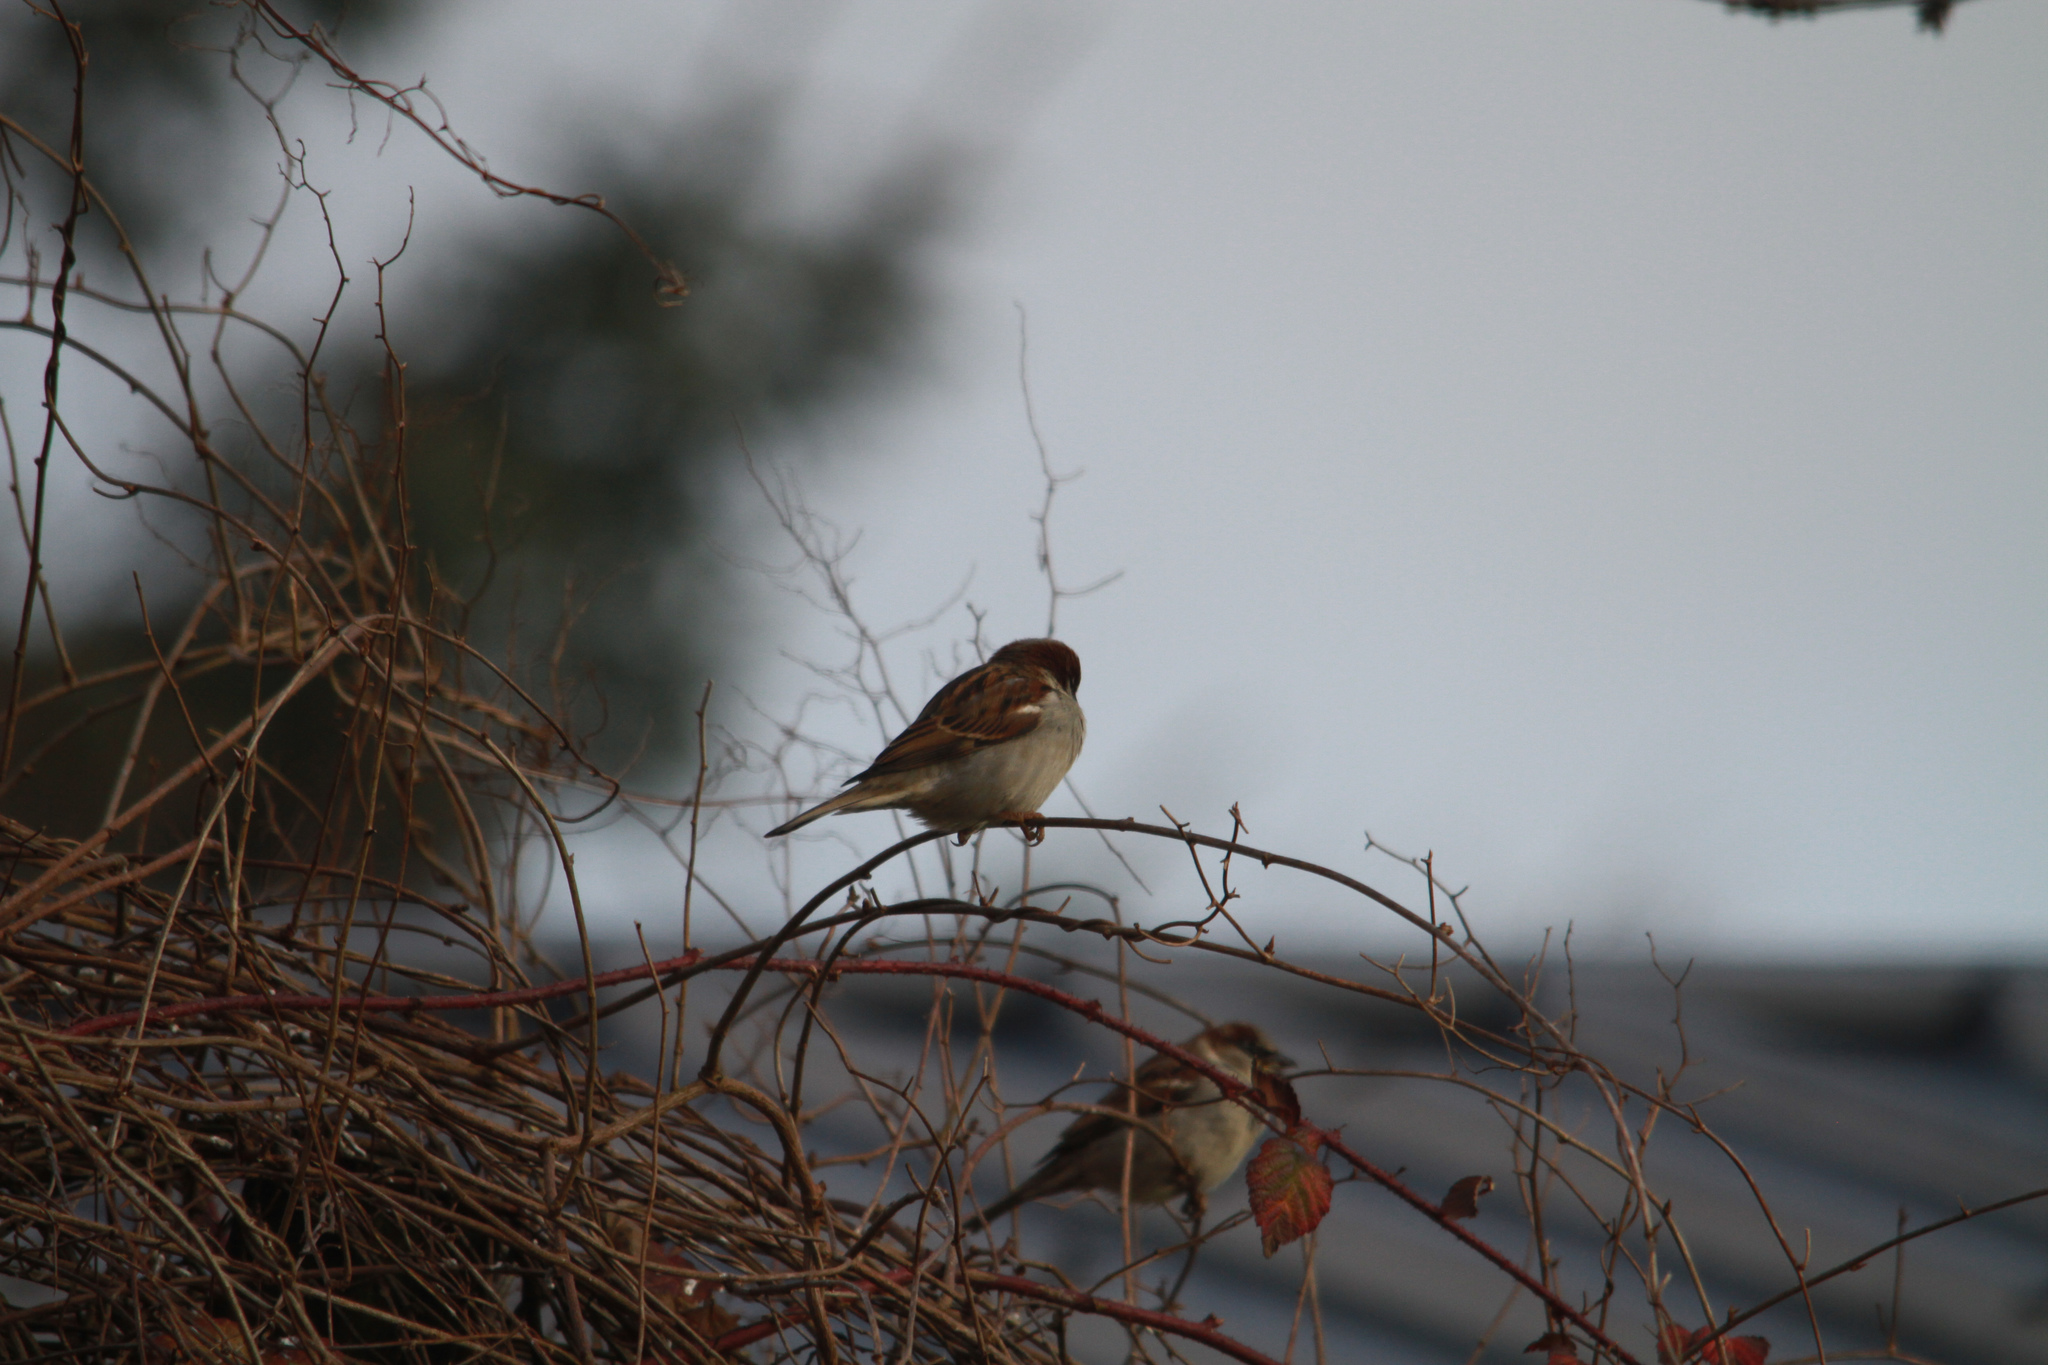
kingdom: Animalia
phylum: Chordata
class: Aves
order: Passeriformes
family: Passeridae
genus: Passer
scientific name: Passer domesticus
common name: House sparrow
